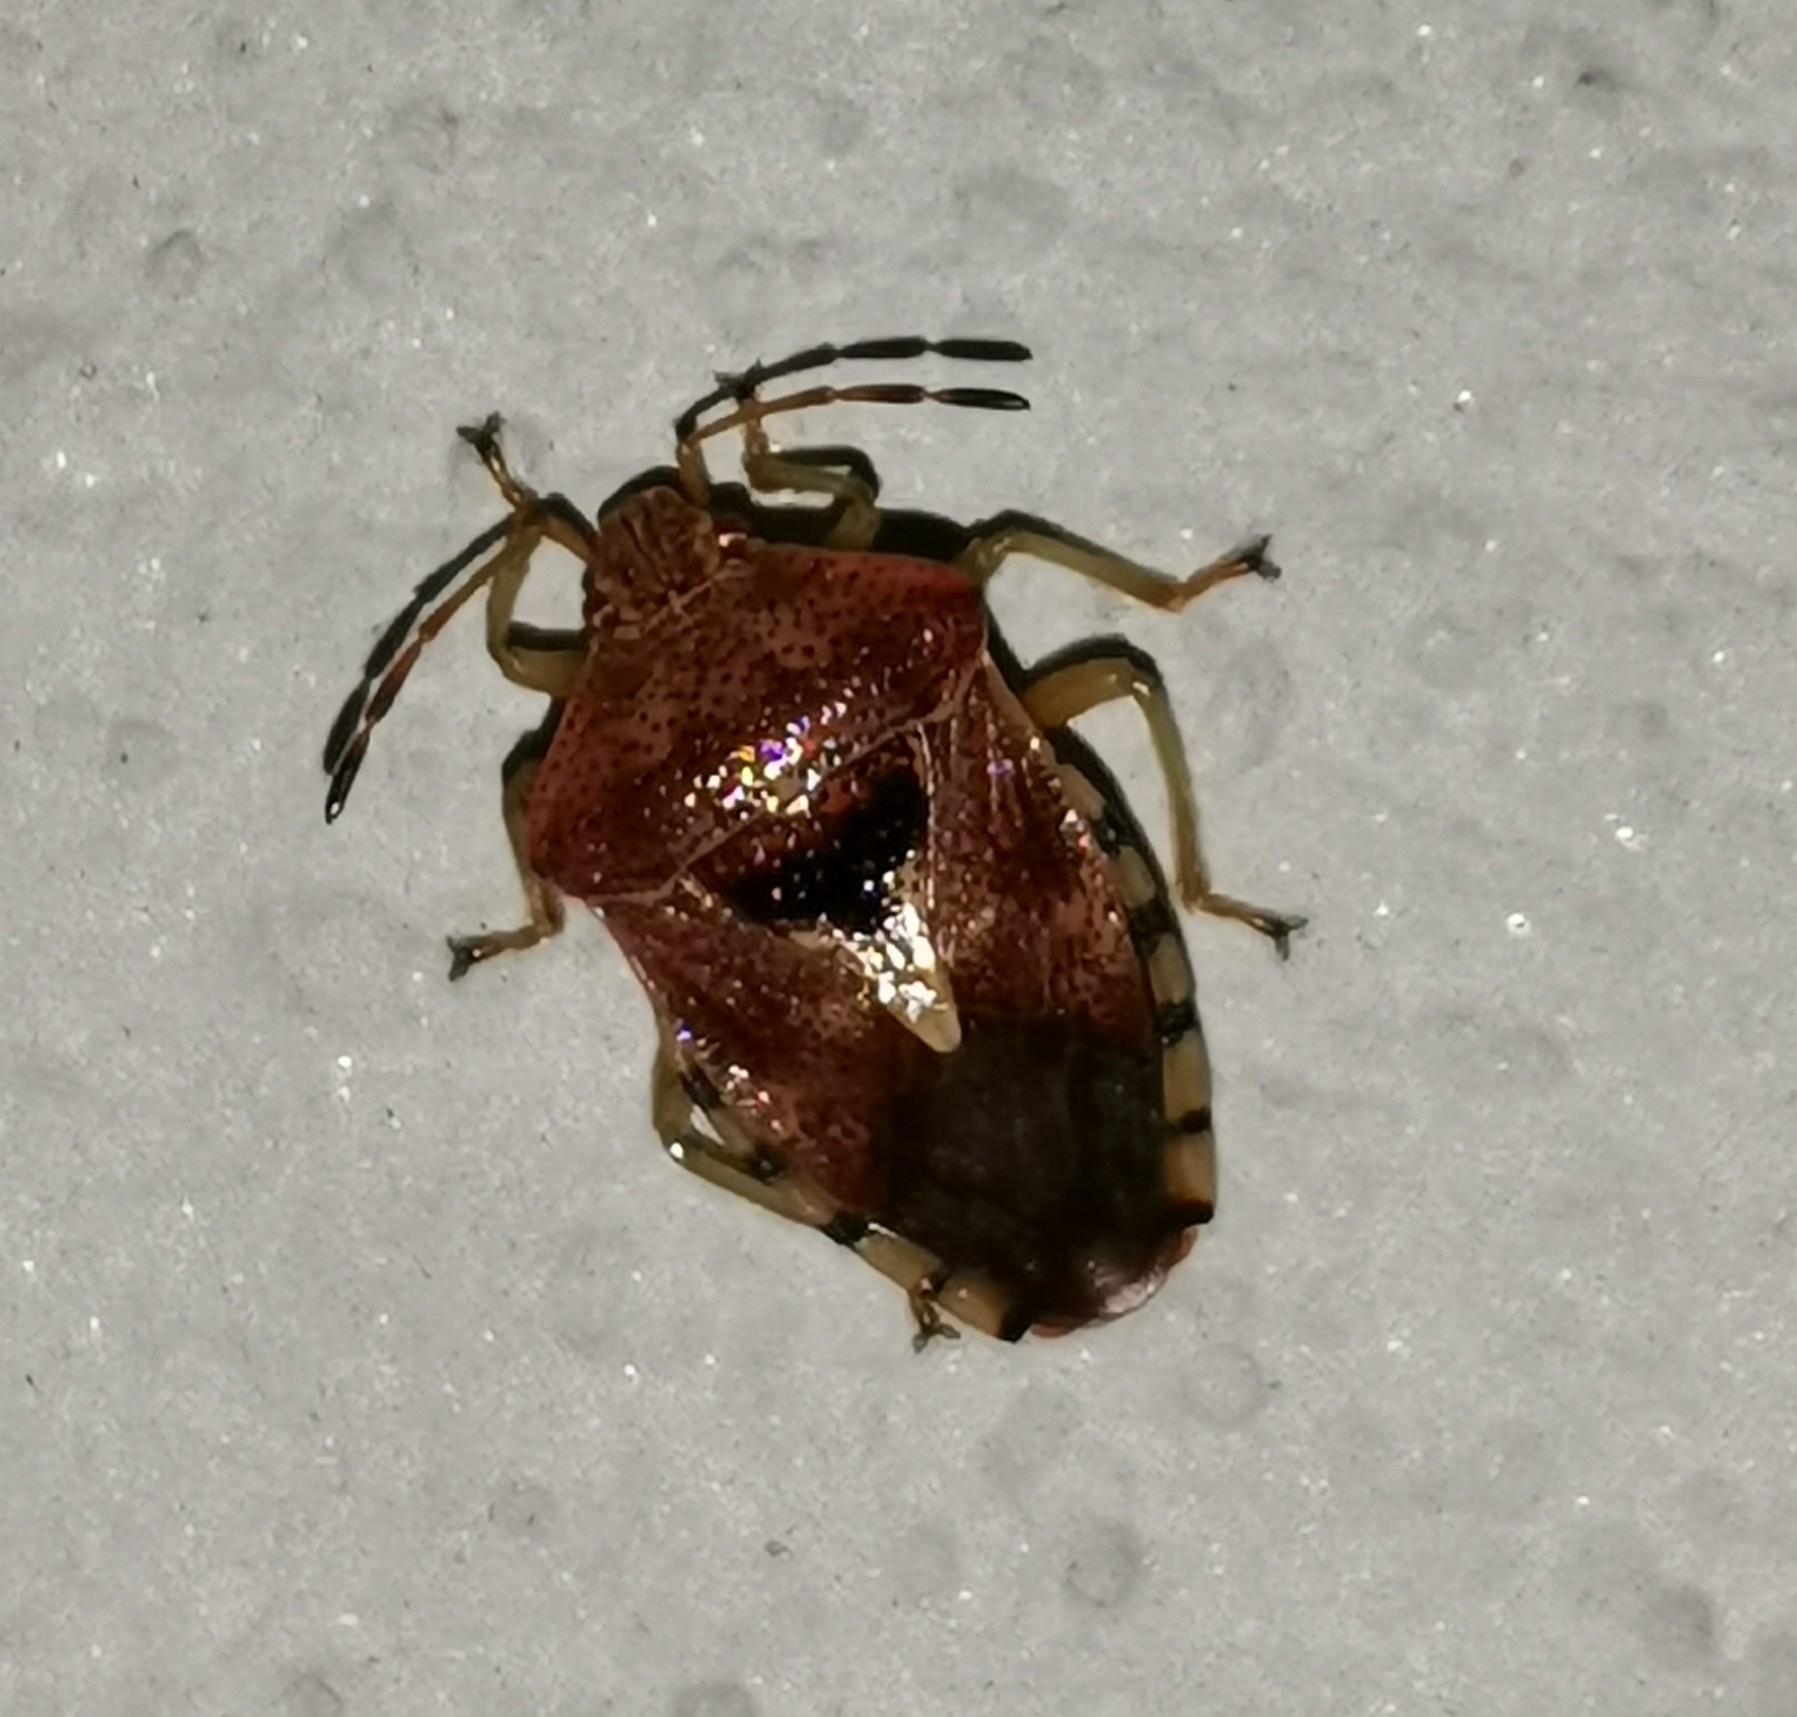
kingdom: Animalia
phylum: Arthropoda
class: Insecta
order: Hemiptera
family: Acanthosomatidae
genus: Elasmucha
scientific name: Elasmucha grisea
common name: Parent bug
